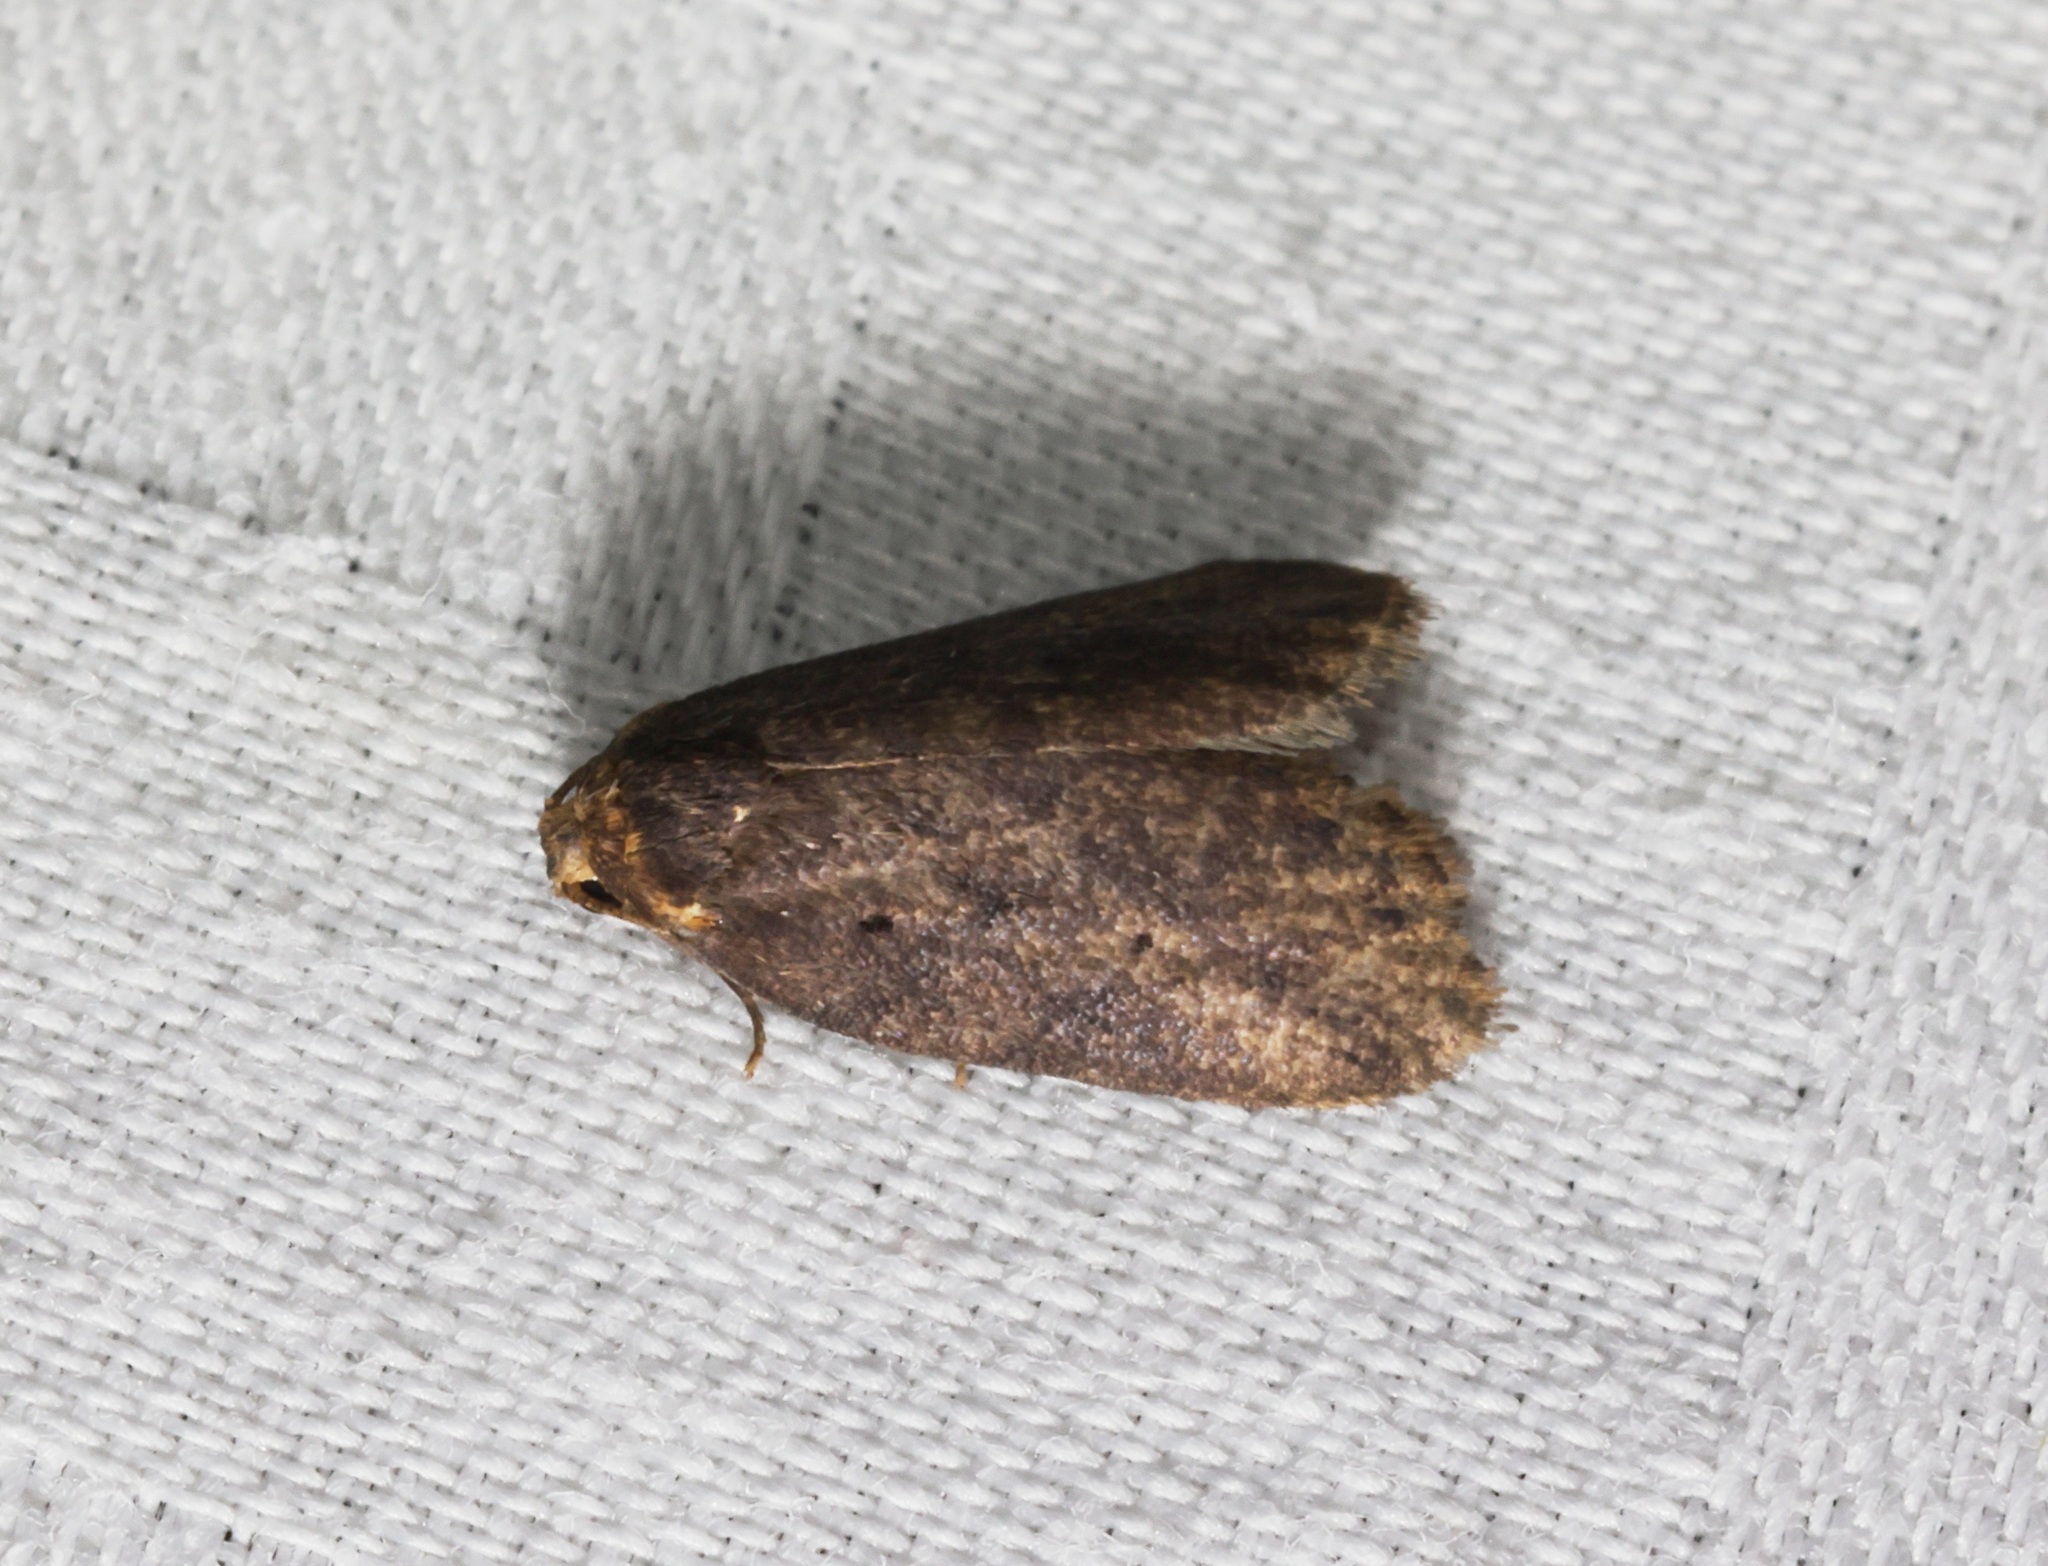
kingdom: Animalia
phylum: Arthropoda
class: Insecta
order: Lepidoptera
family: Erebidae
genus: Eugoa
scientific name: Eugoa brunnea
